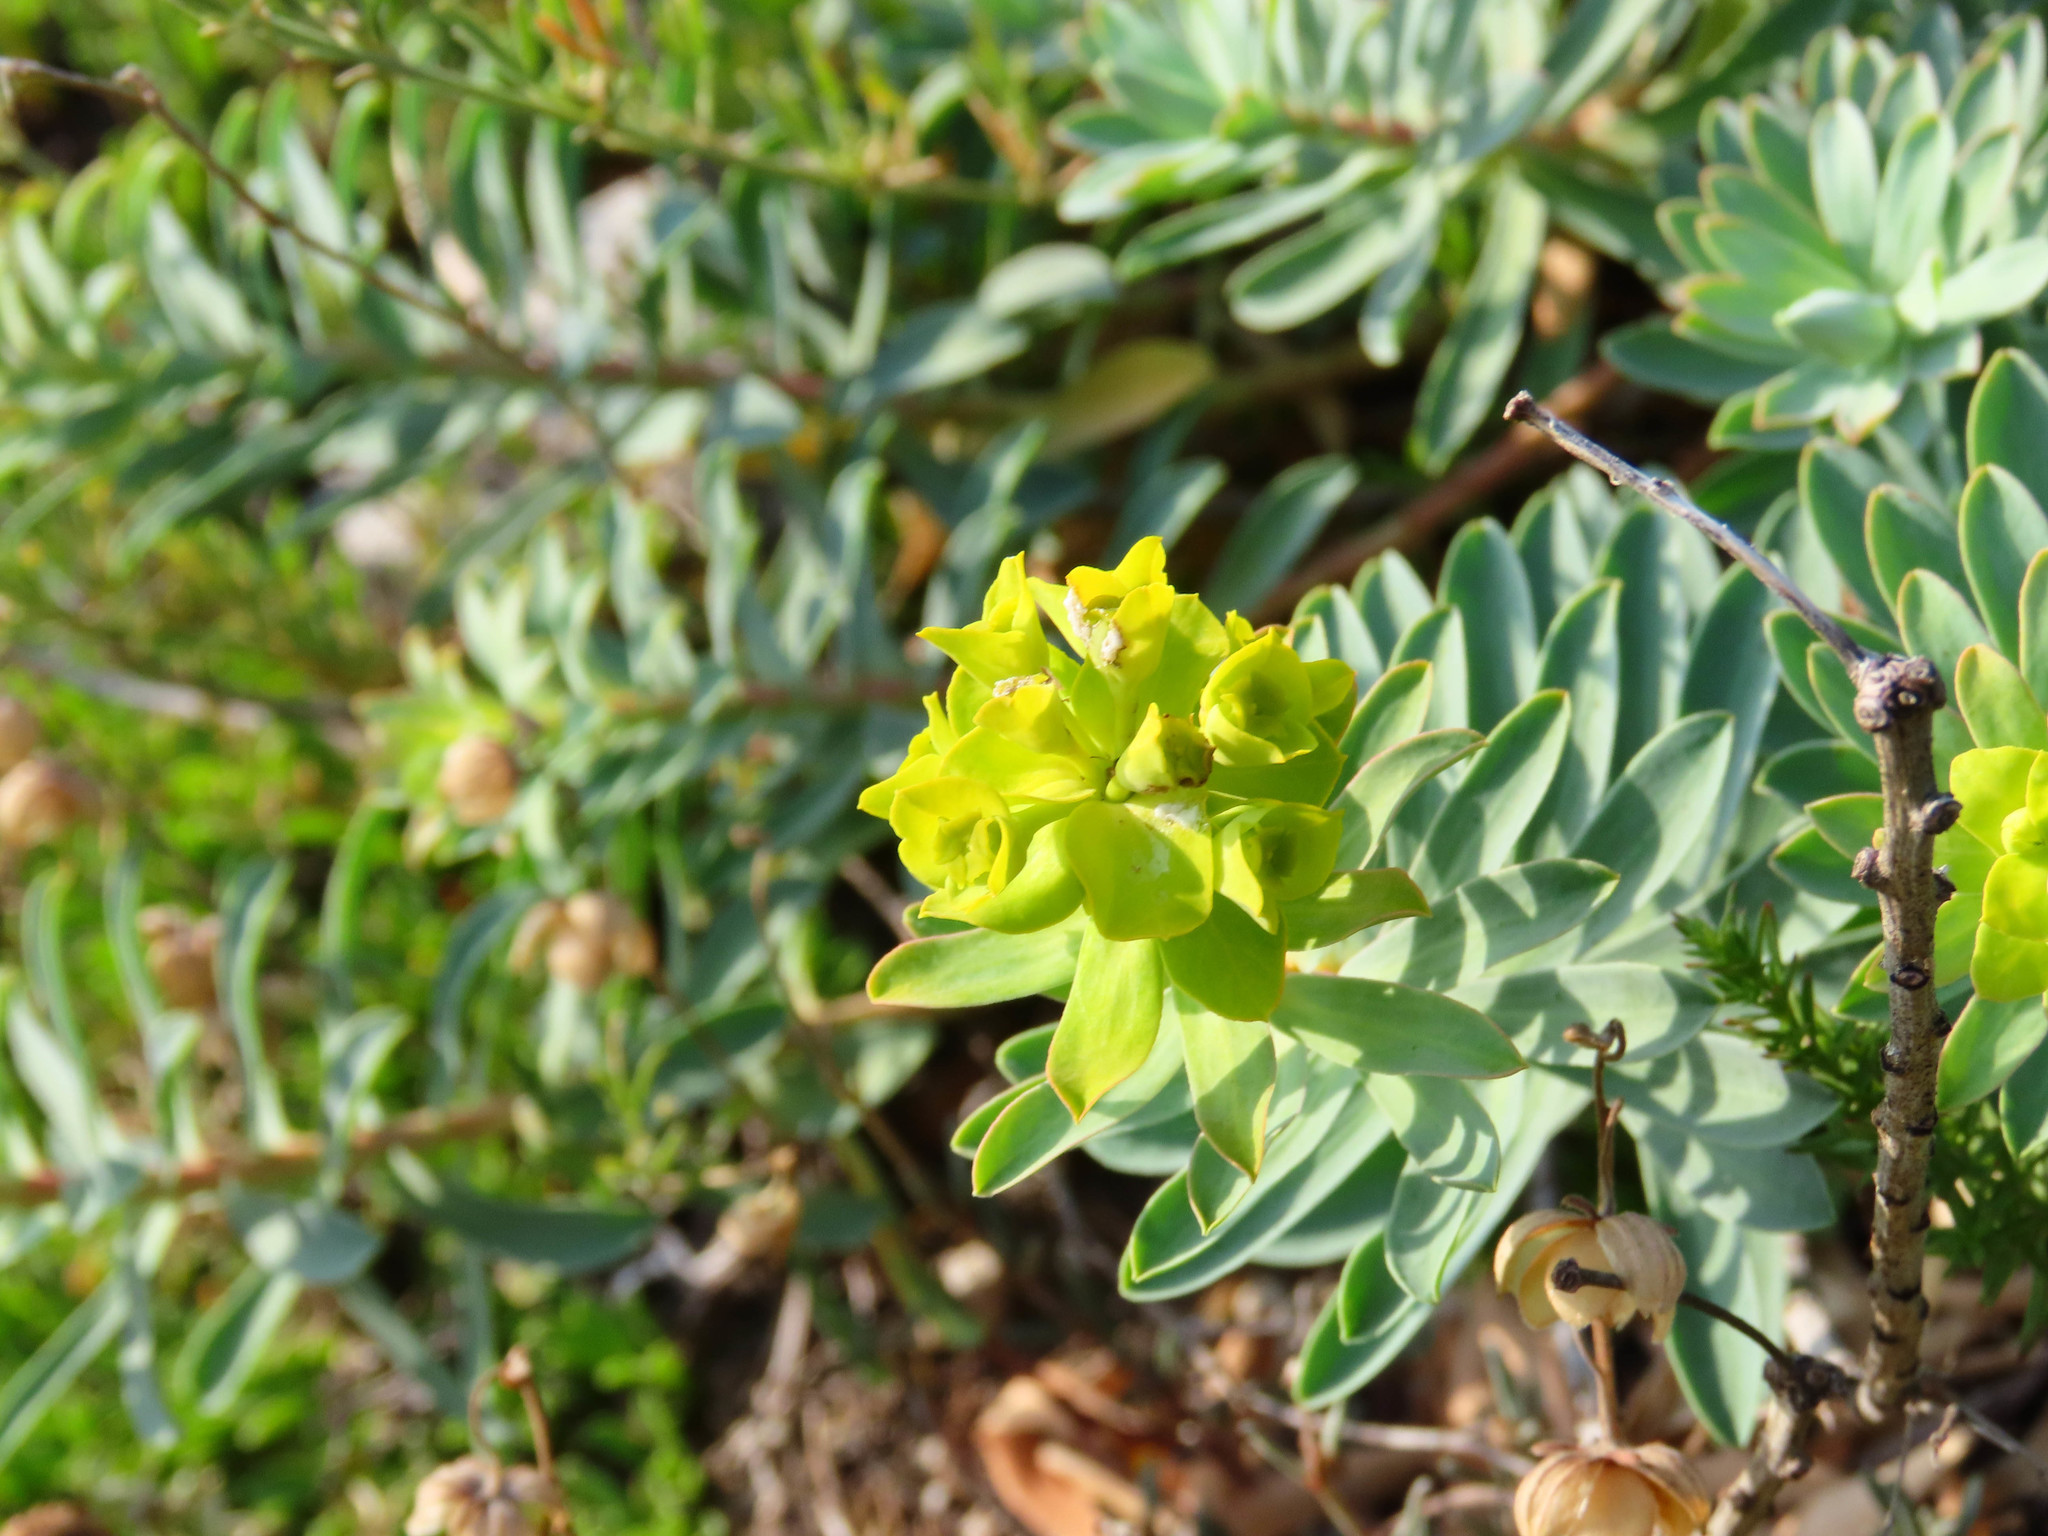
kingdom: Plantae
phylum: Tracheophyta
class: Magnoliopsida
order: Malpighiales
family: Euphorbiaceae
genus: Euphorbia
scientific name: Euphorbia nicaeensis
